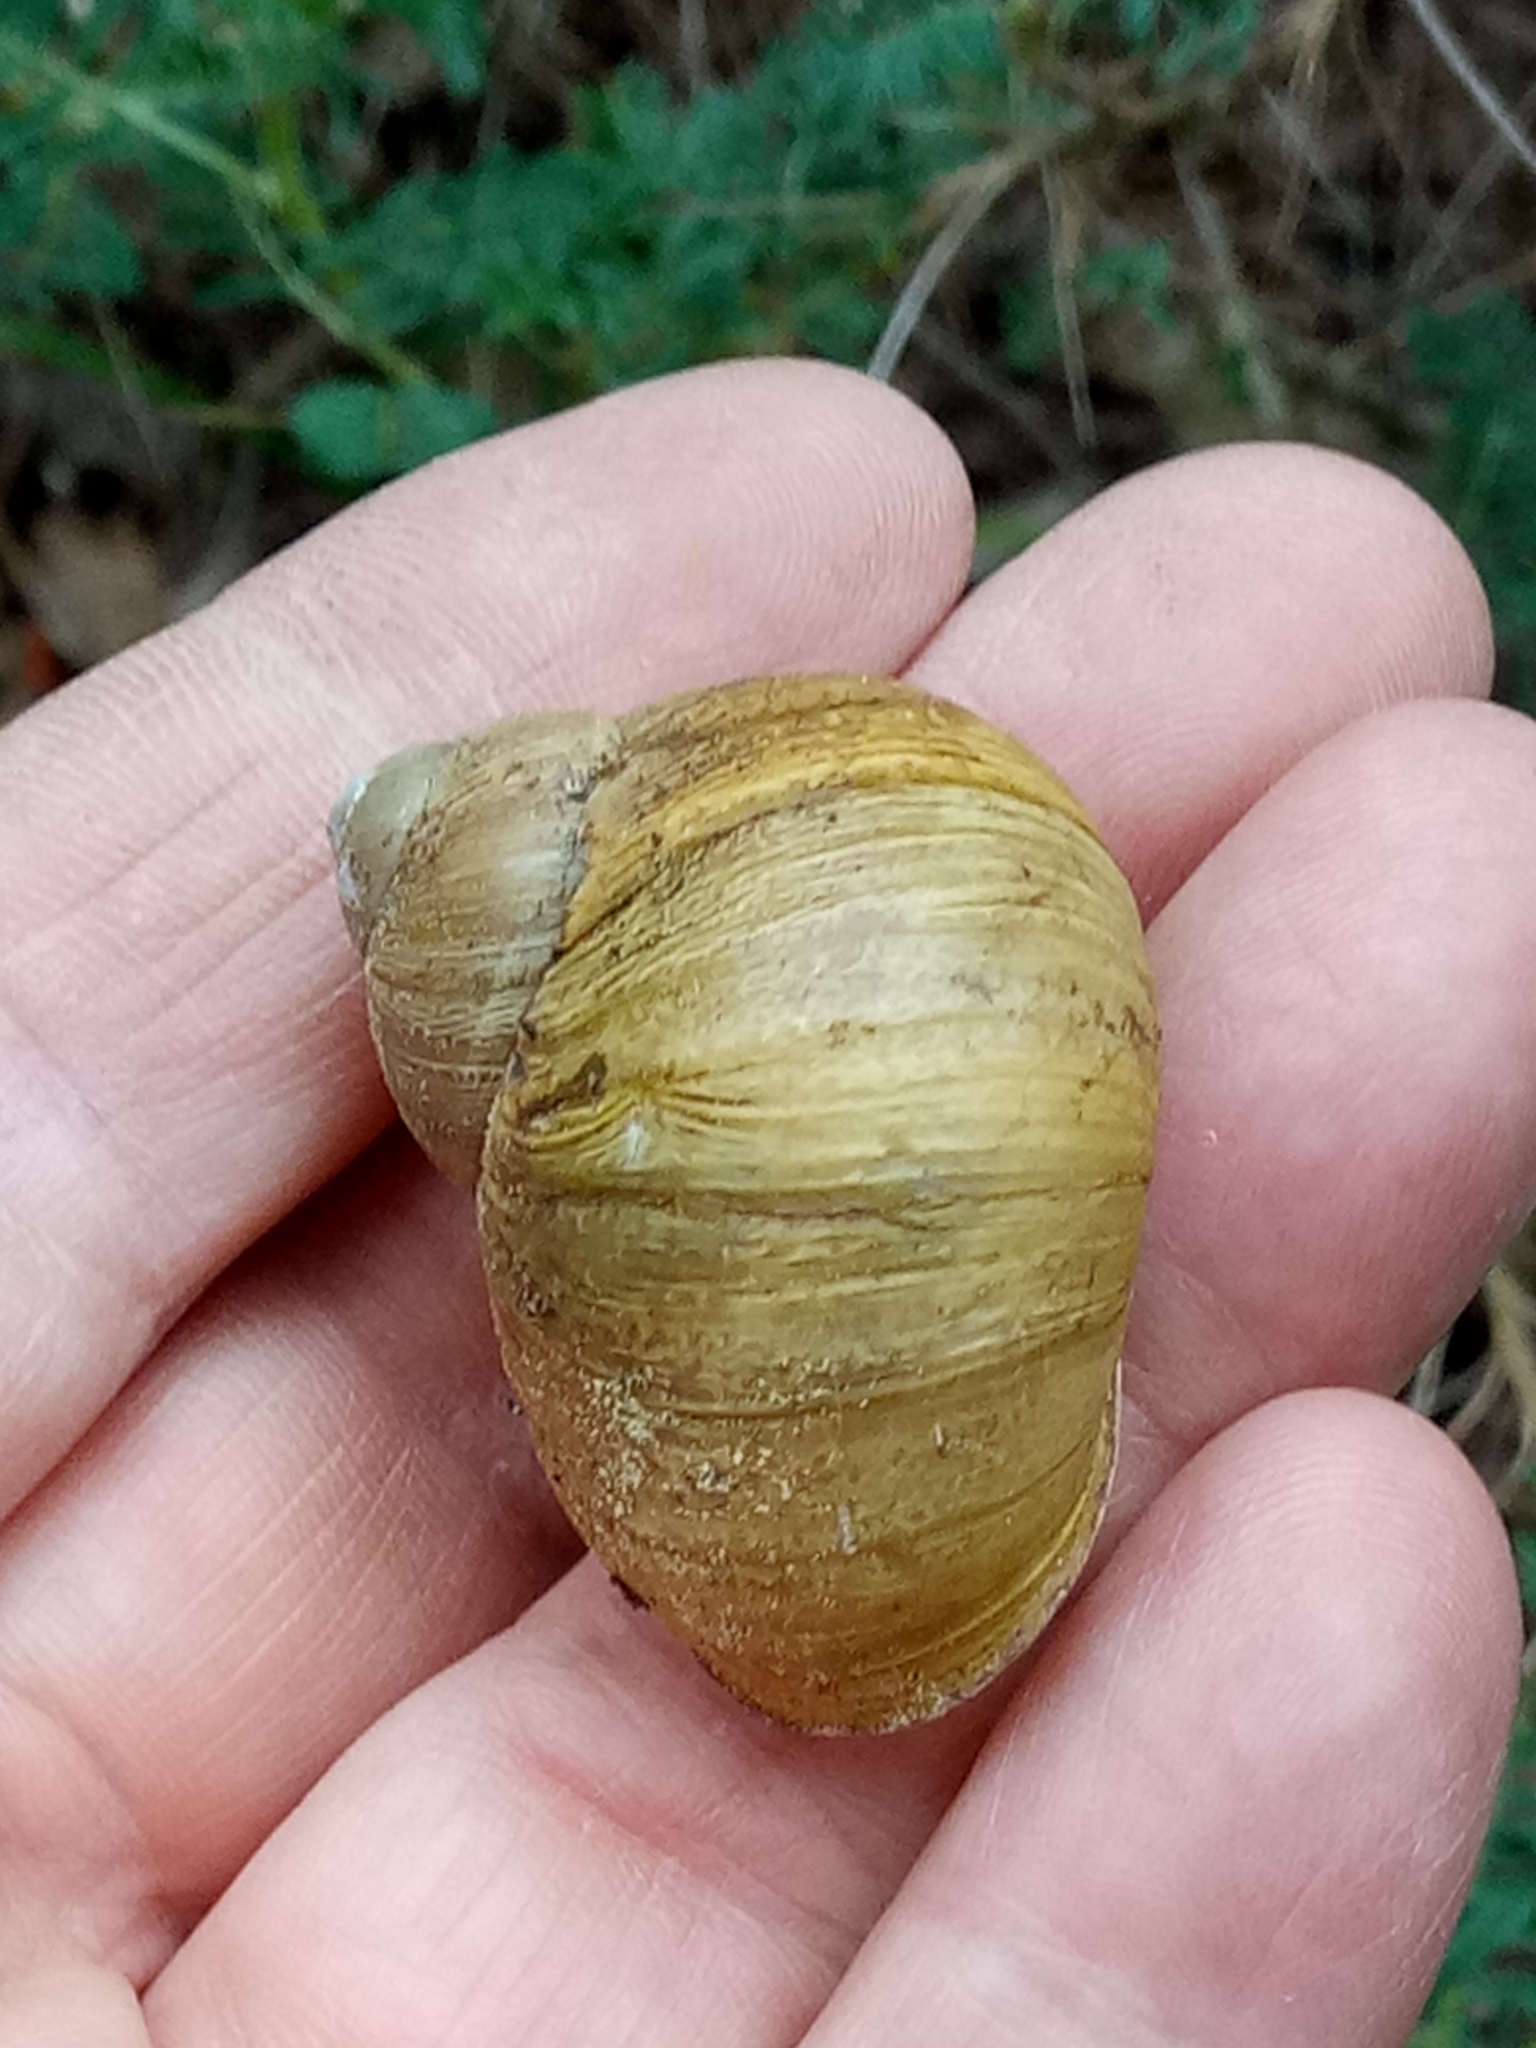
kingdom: Animalia
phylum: Mollusca
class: Gastropoda
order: Stylommatophora
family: Helicidae
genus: Cornu
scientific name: Cornu aspersum
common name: Brown garden snail
